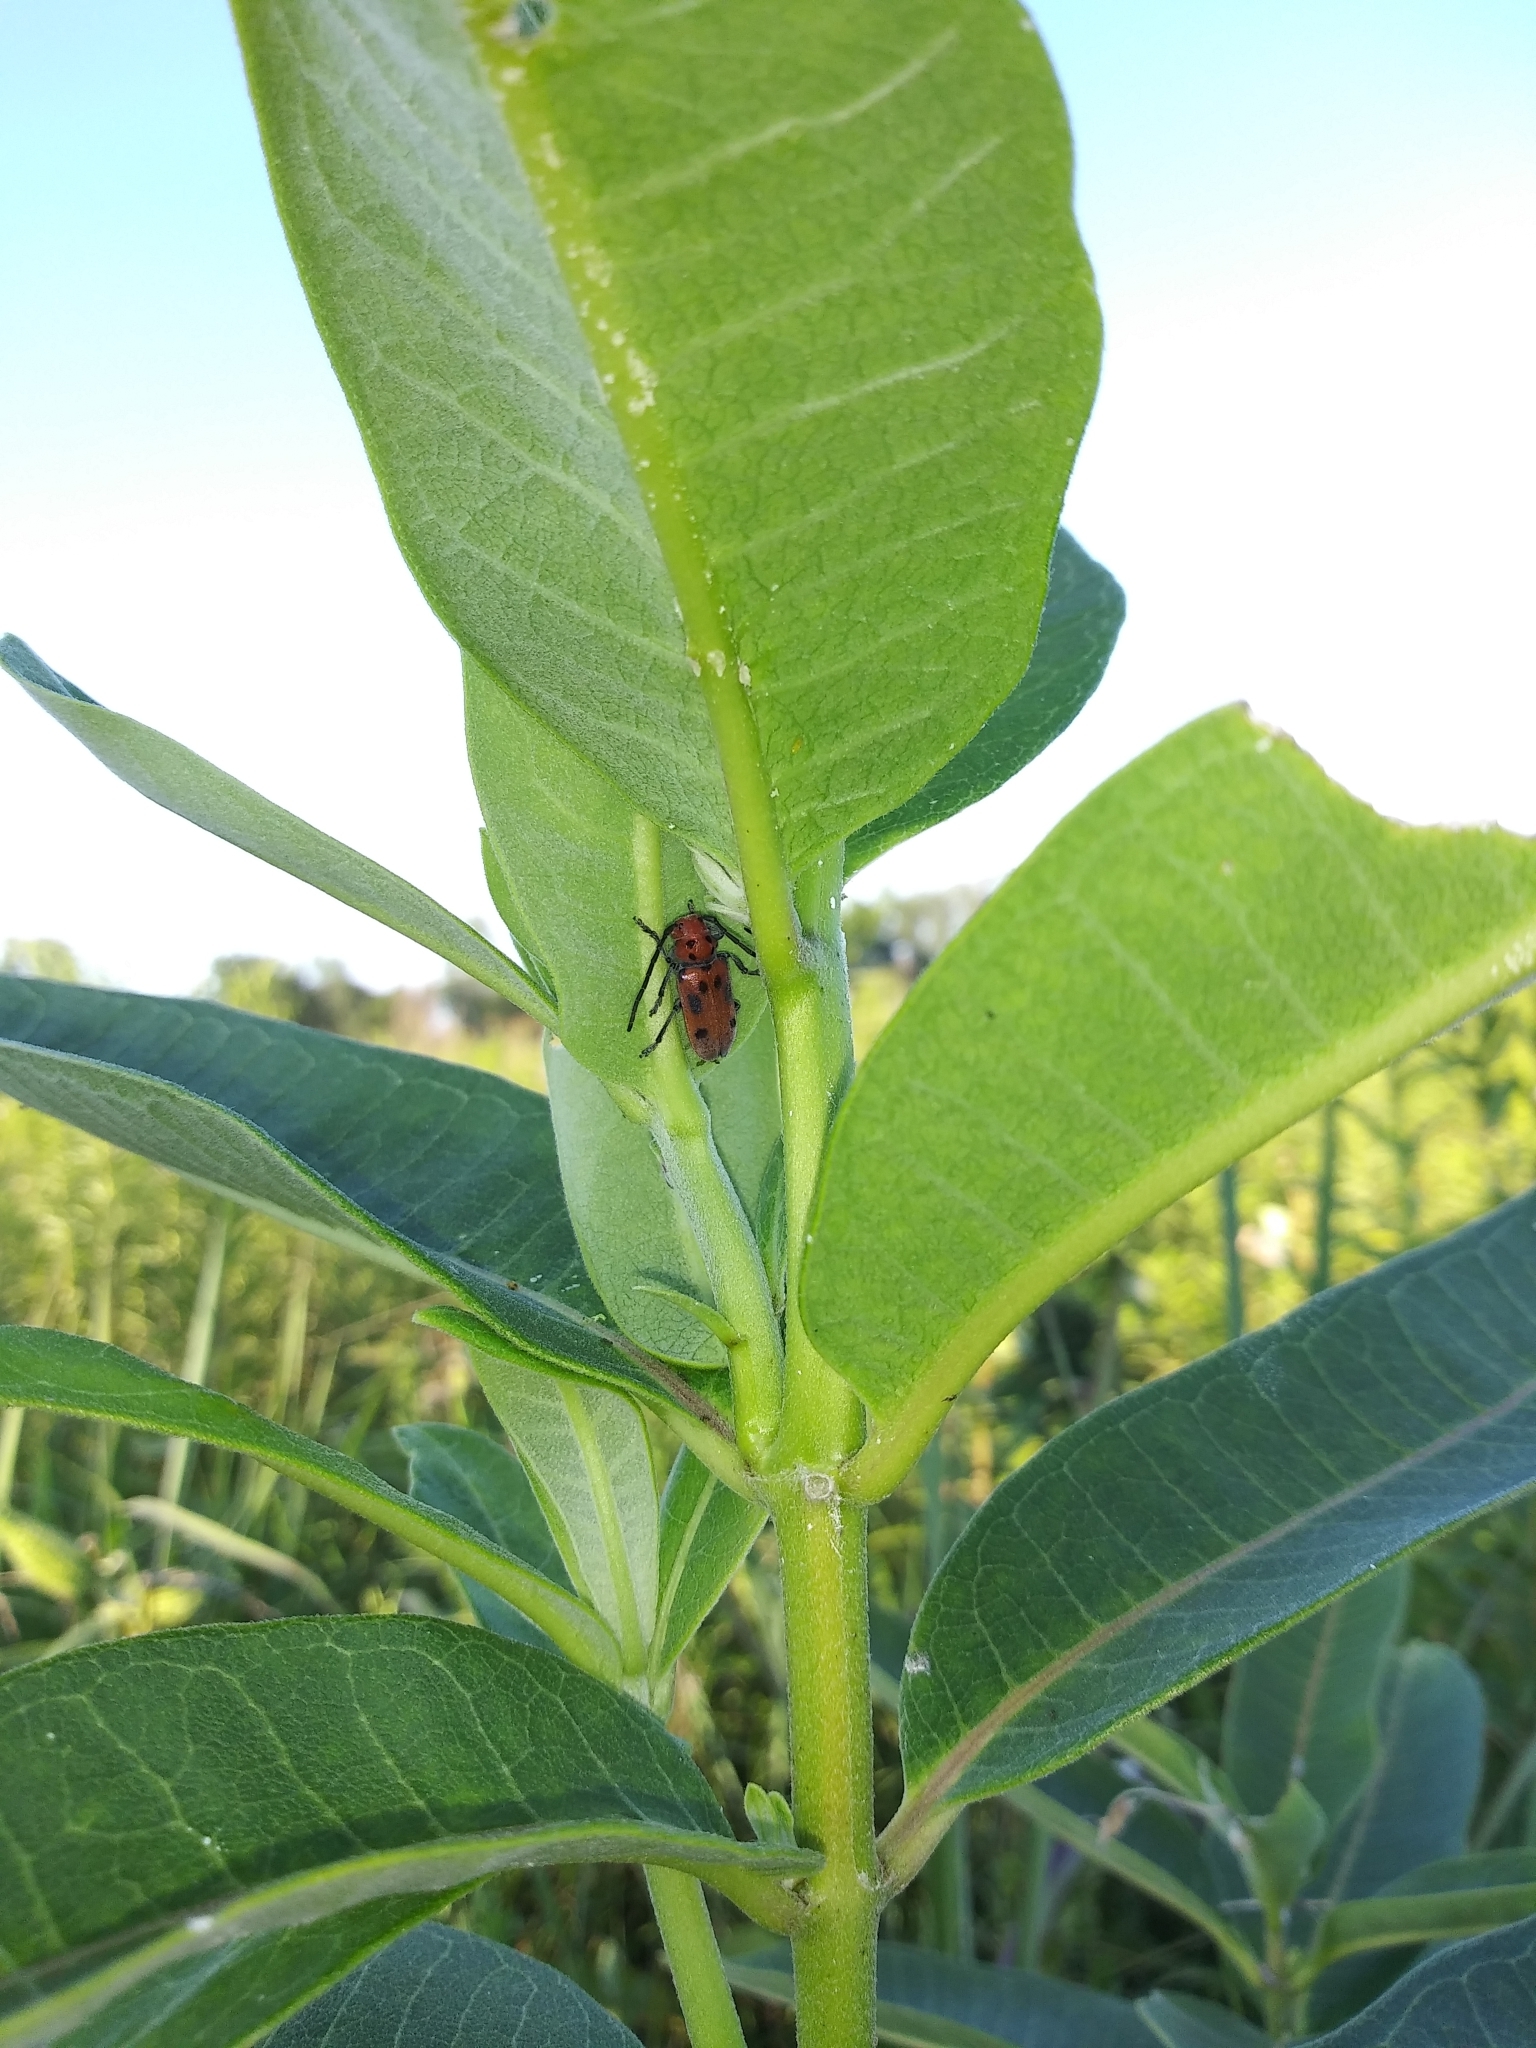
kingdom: Animalia
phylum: Arthropoda
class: Insecta
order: Coleoptera
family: Cerambycidae
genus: Tetraopes
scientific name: Tetraopes tetrophthalmus
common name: Red milkweed beetle
